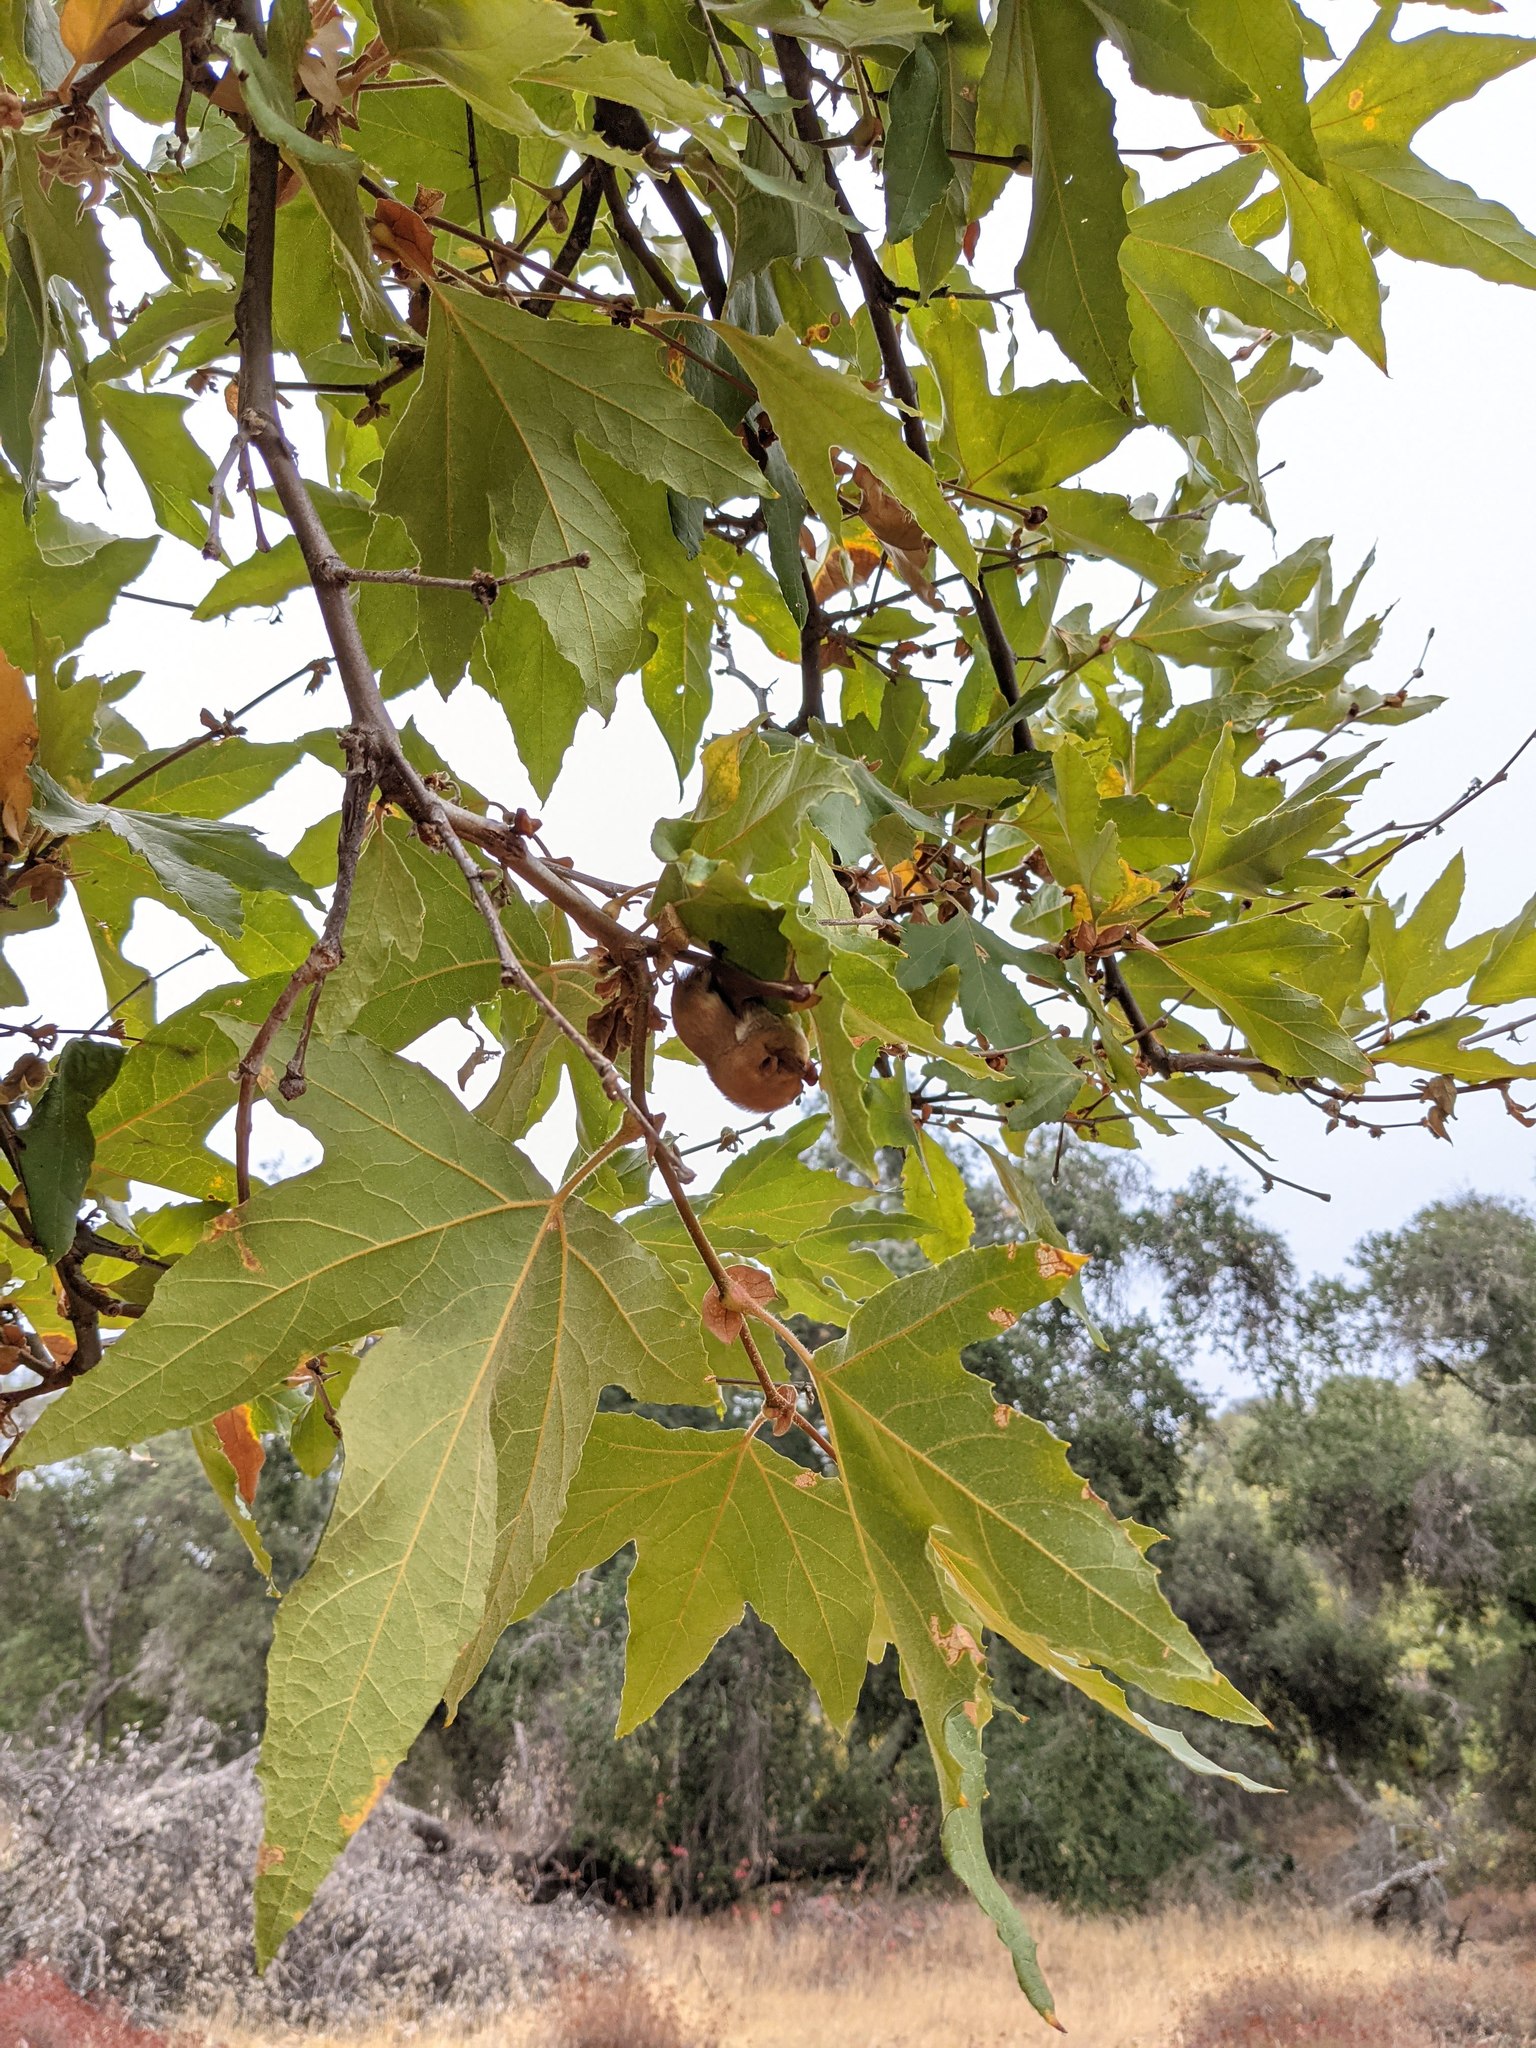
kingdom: Animalia
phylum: Chordata
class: Mammalia
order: Chiroptera
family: Vespertilionidae
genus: Lasiurus
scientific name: Lasiurus frantzii
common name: Desert red bat
